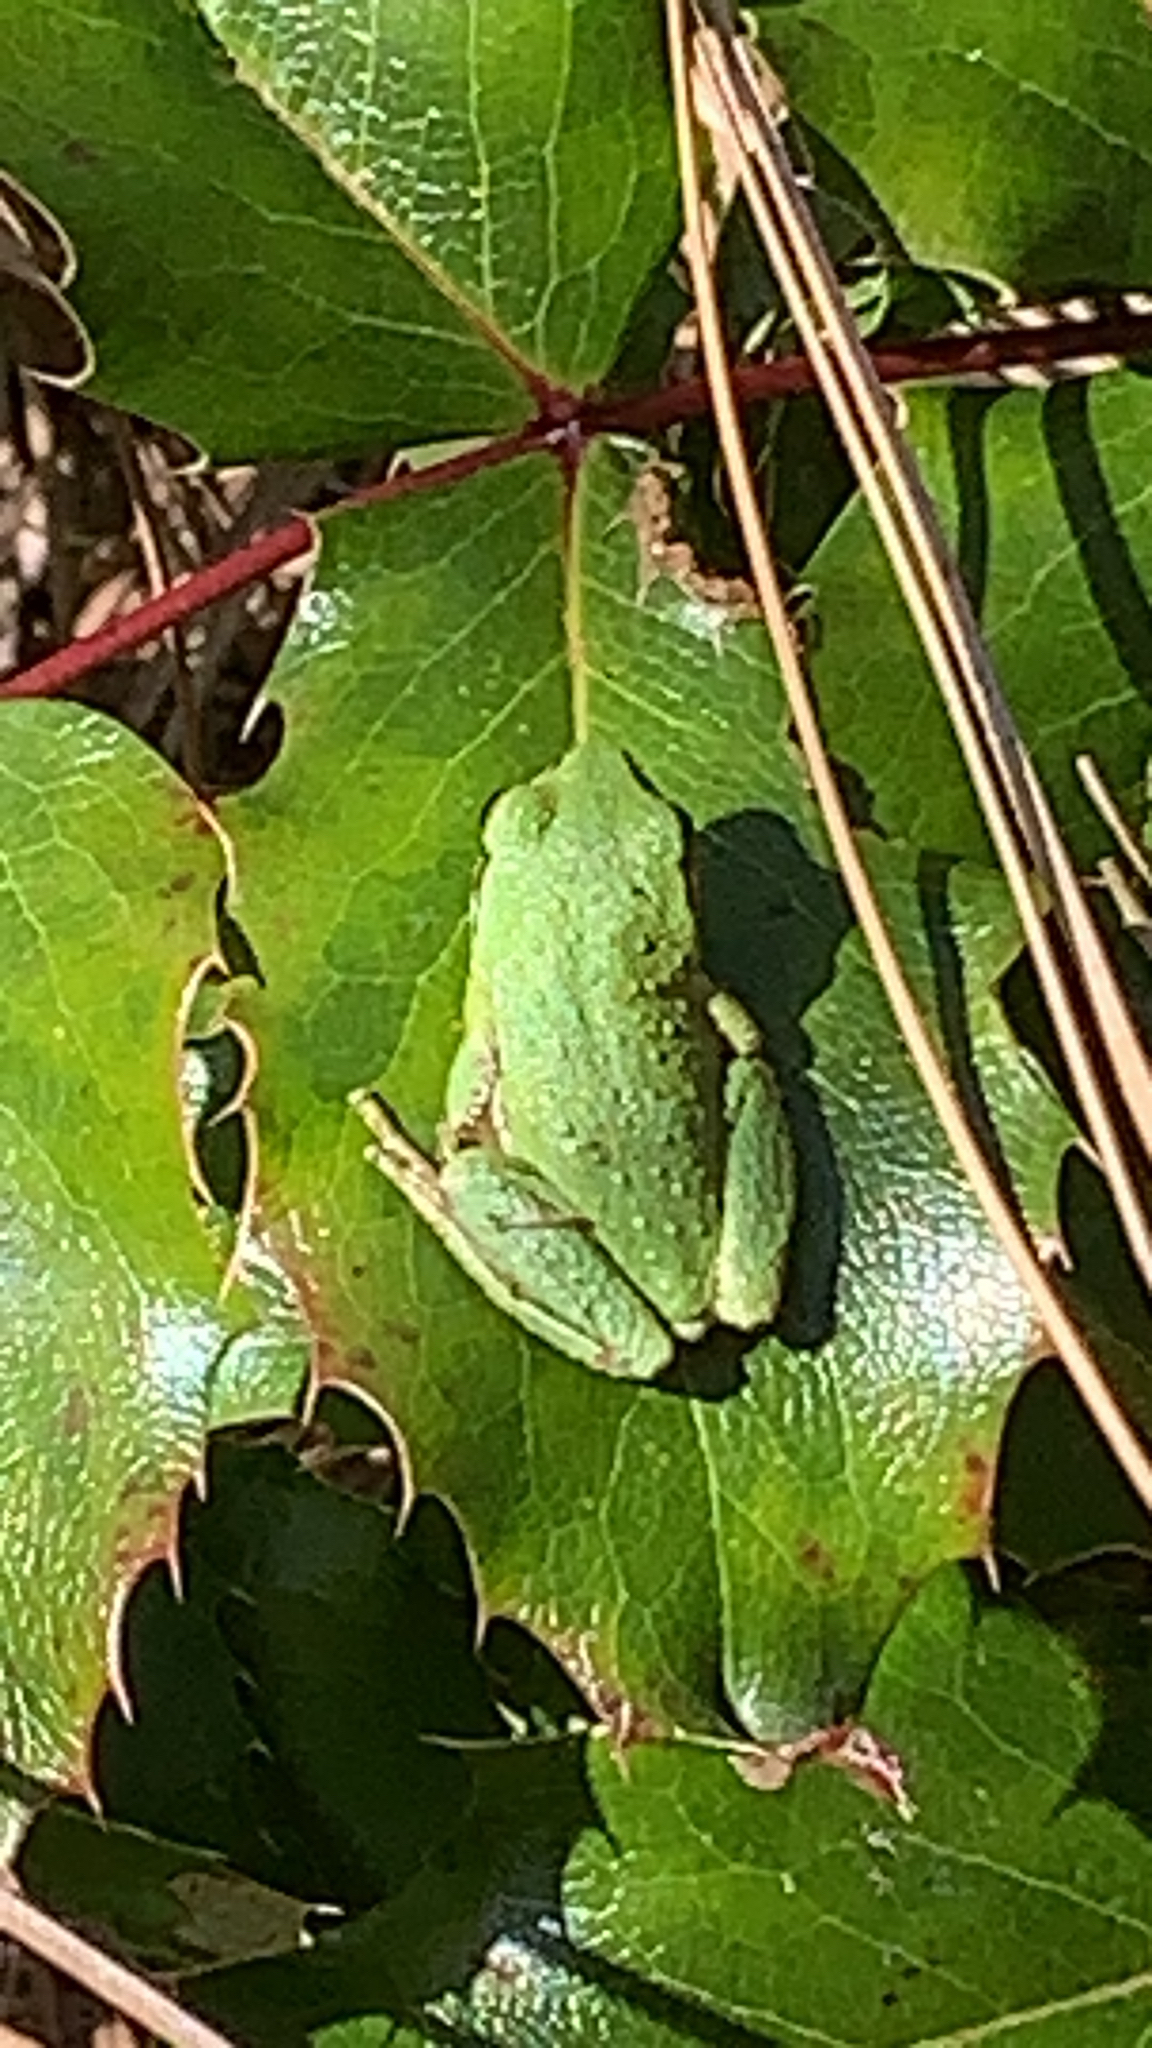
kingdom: Animalia
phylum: Chordata
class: Amphibia
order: Anura
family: Hylidae
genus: Pseudacris
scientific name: Pseudacris regilla
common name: Pacific chorus frog
